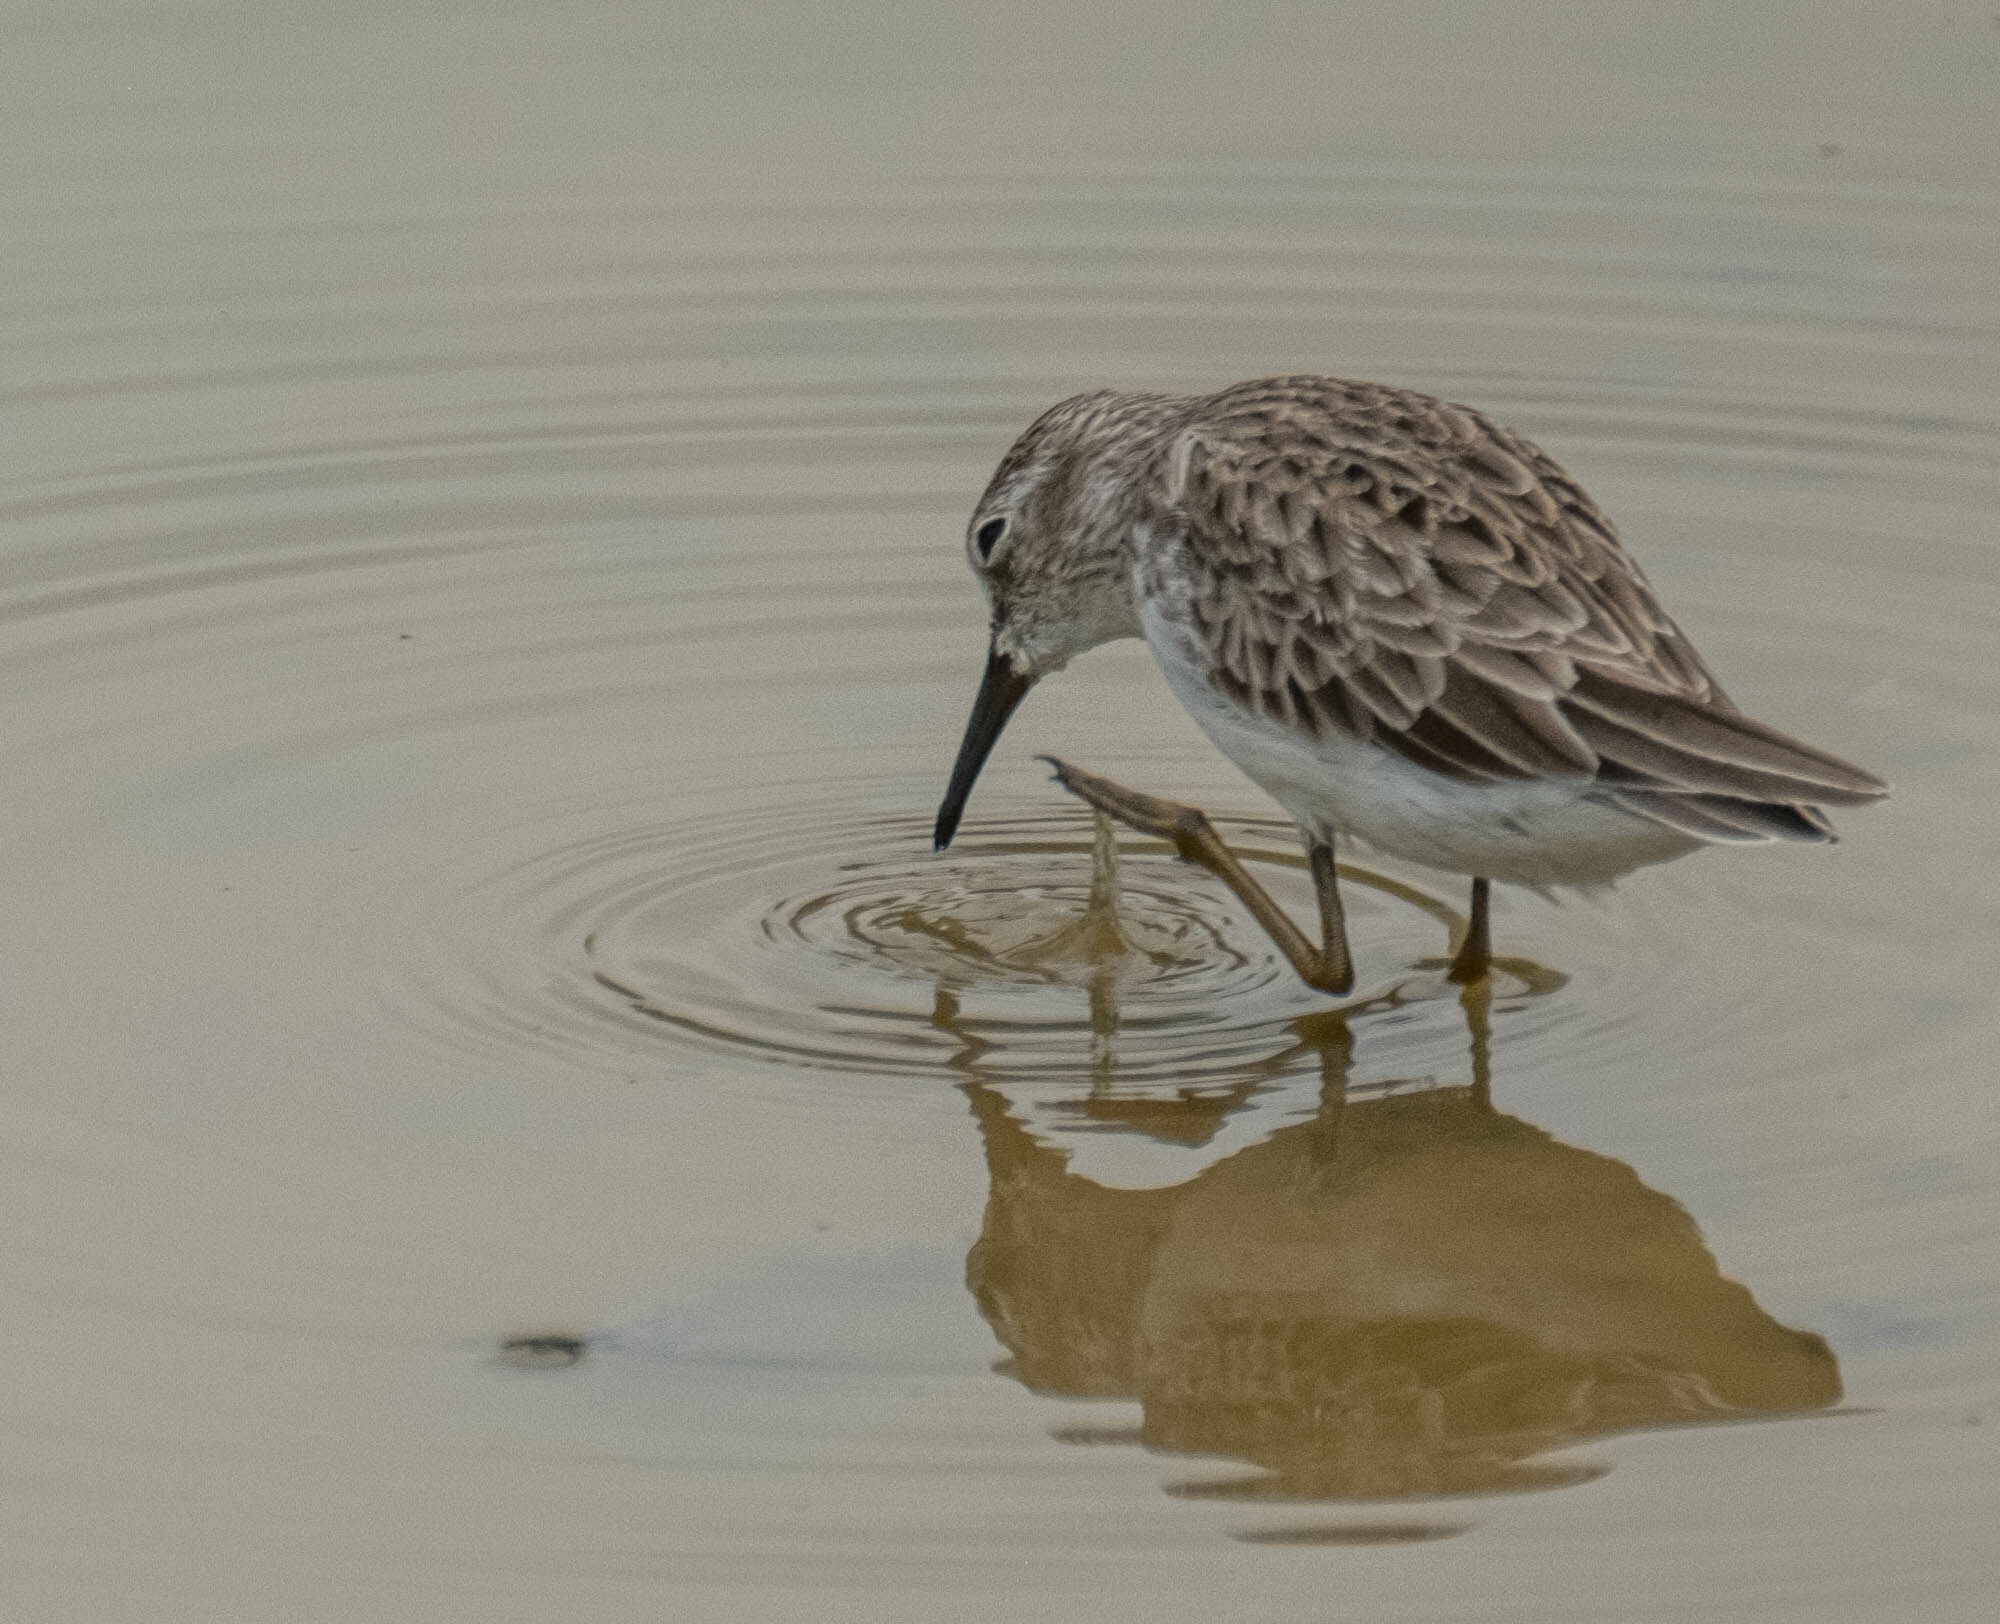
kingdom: Animalia
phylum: Chordata
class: Aves
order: Charadriiformes
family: Scolopacidae
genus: Calidris
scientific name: Calidris minutilla
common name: Least sandpiper
